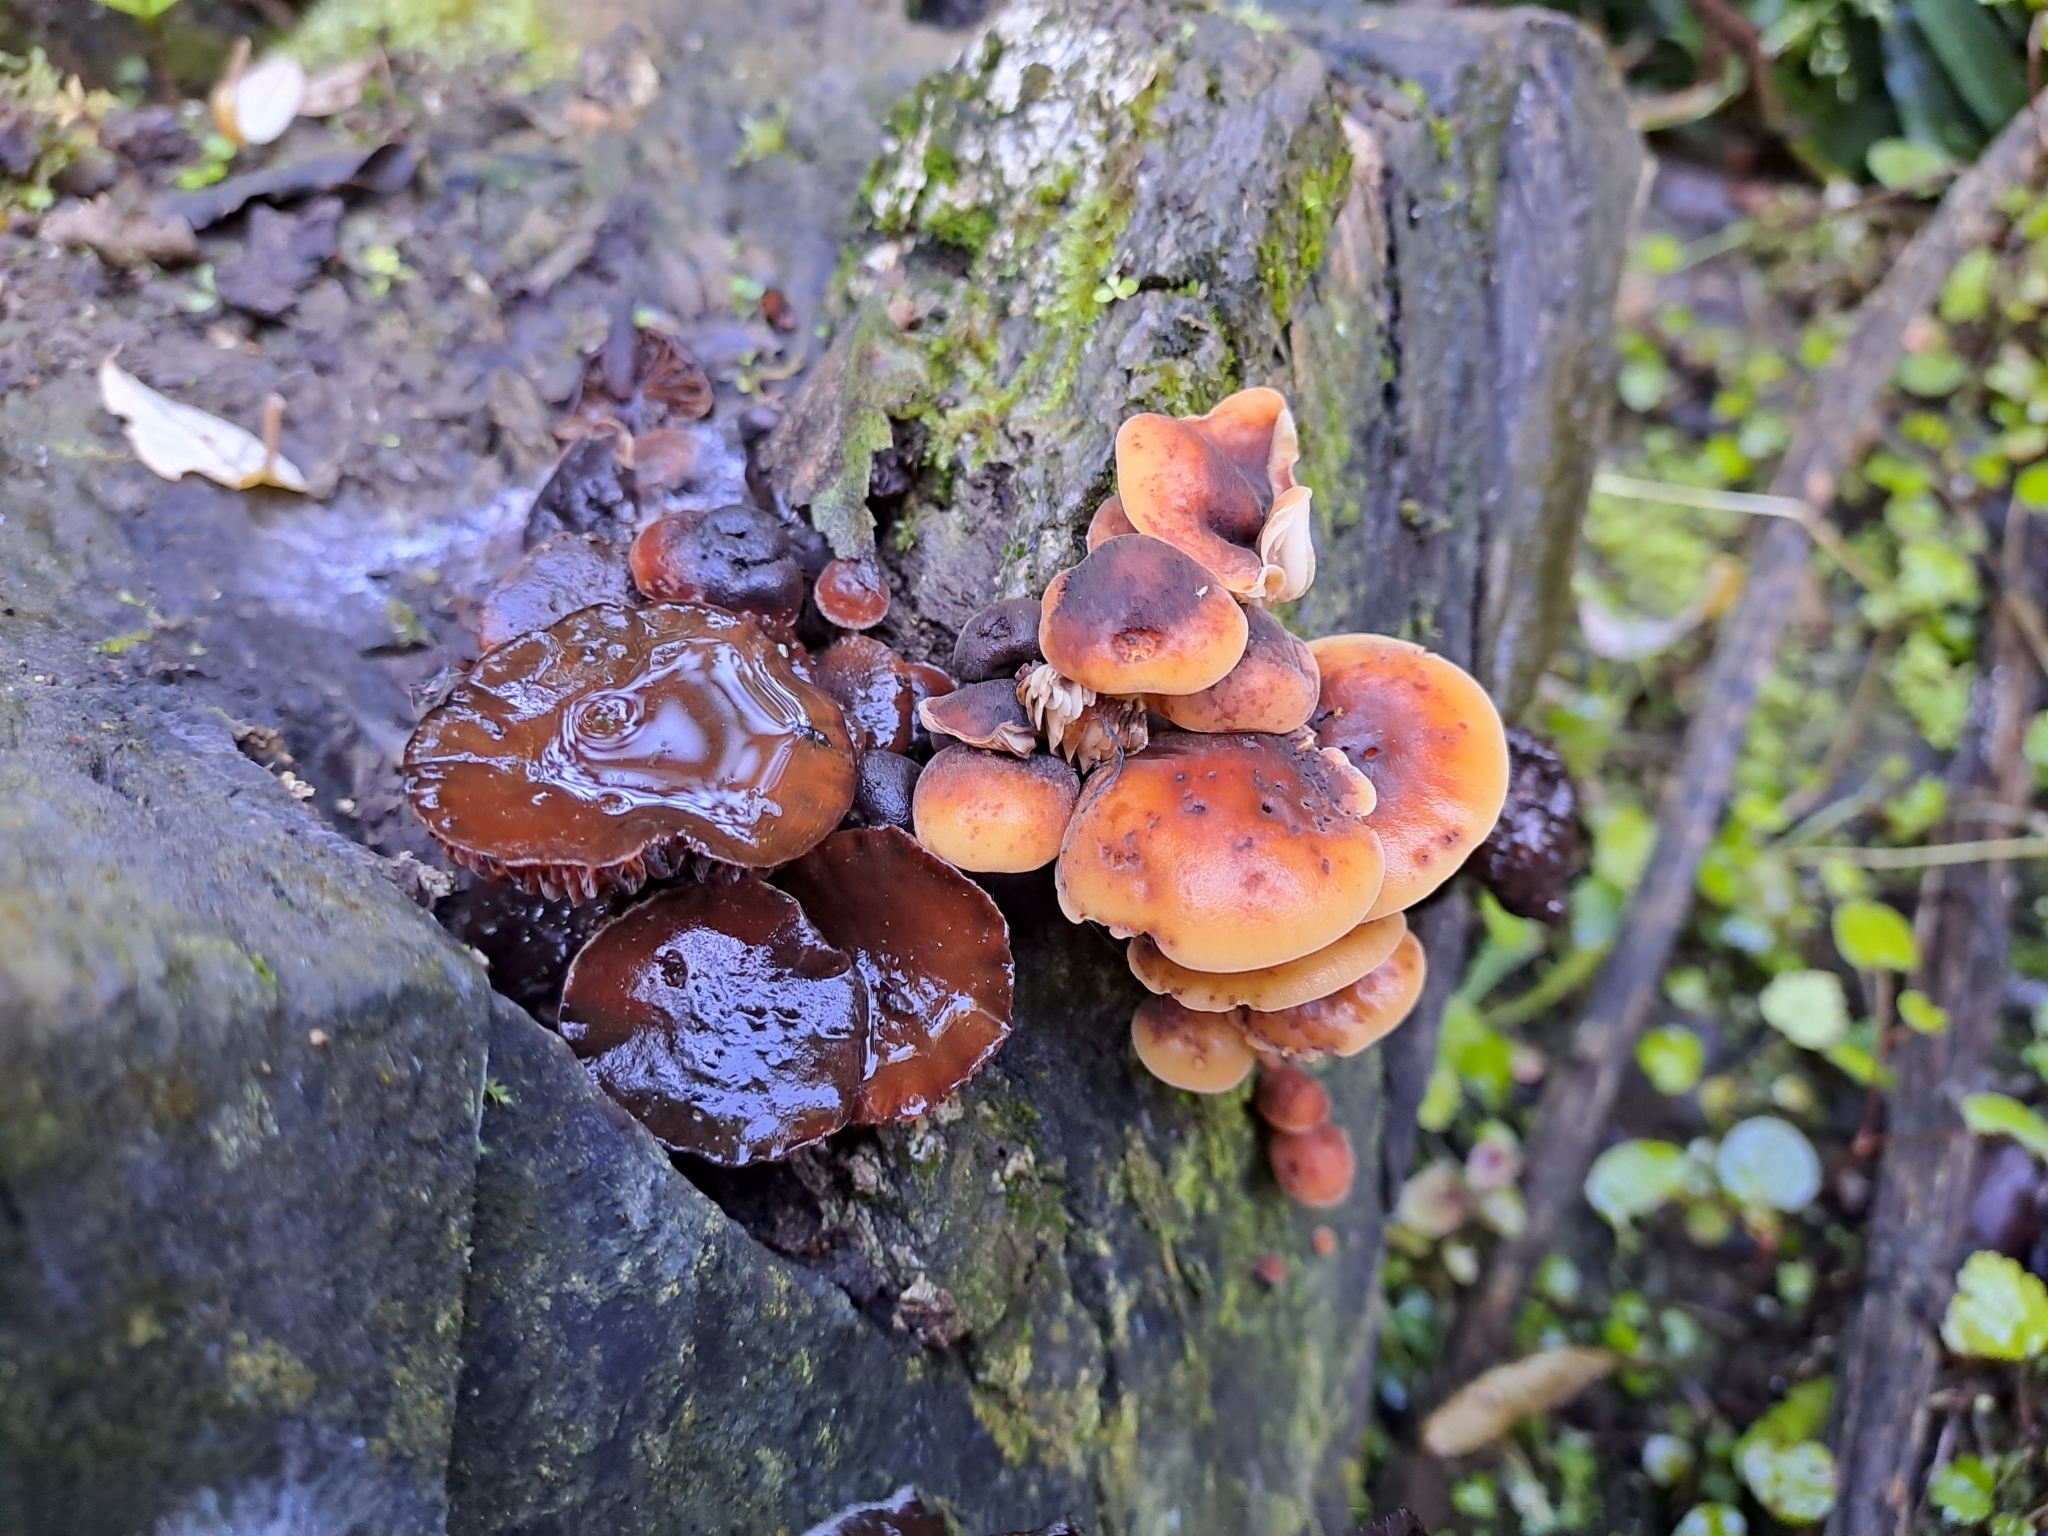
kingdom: Fungi
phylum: Basidiomycota
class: Agaricomycetes
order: Agaricales
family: Physalacriaceae
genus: Flammulina
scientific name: Flammulina velutipes
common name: Velvet shank
